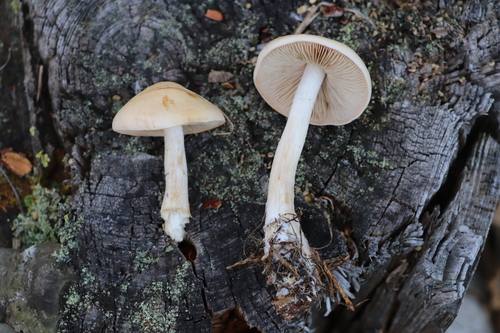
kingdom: Fungi
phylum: Basidiomycota
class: Agaricomycetes
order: Agaricales
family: Hymenogastraceae
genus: Hebeloma
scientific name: Hebeloma
